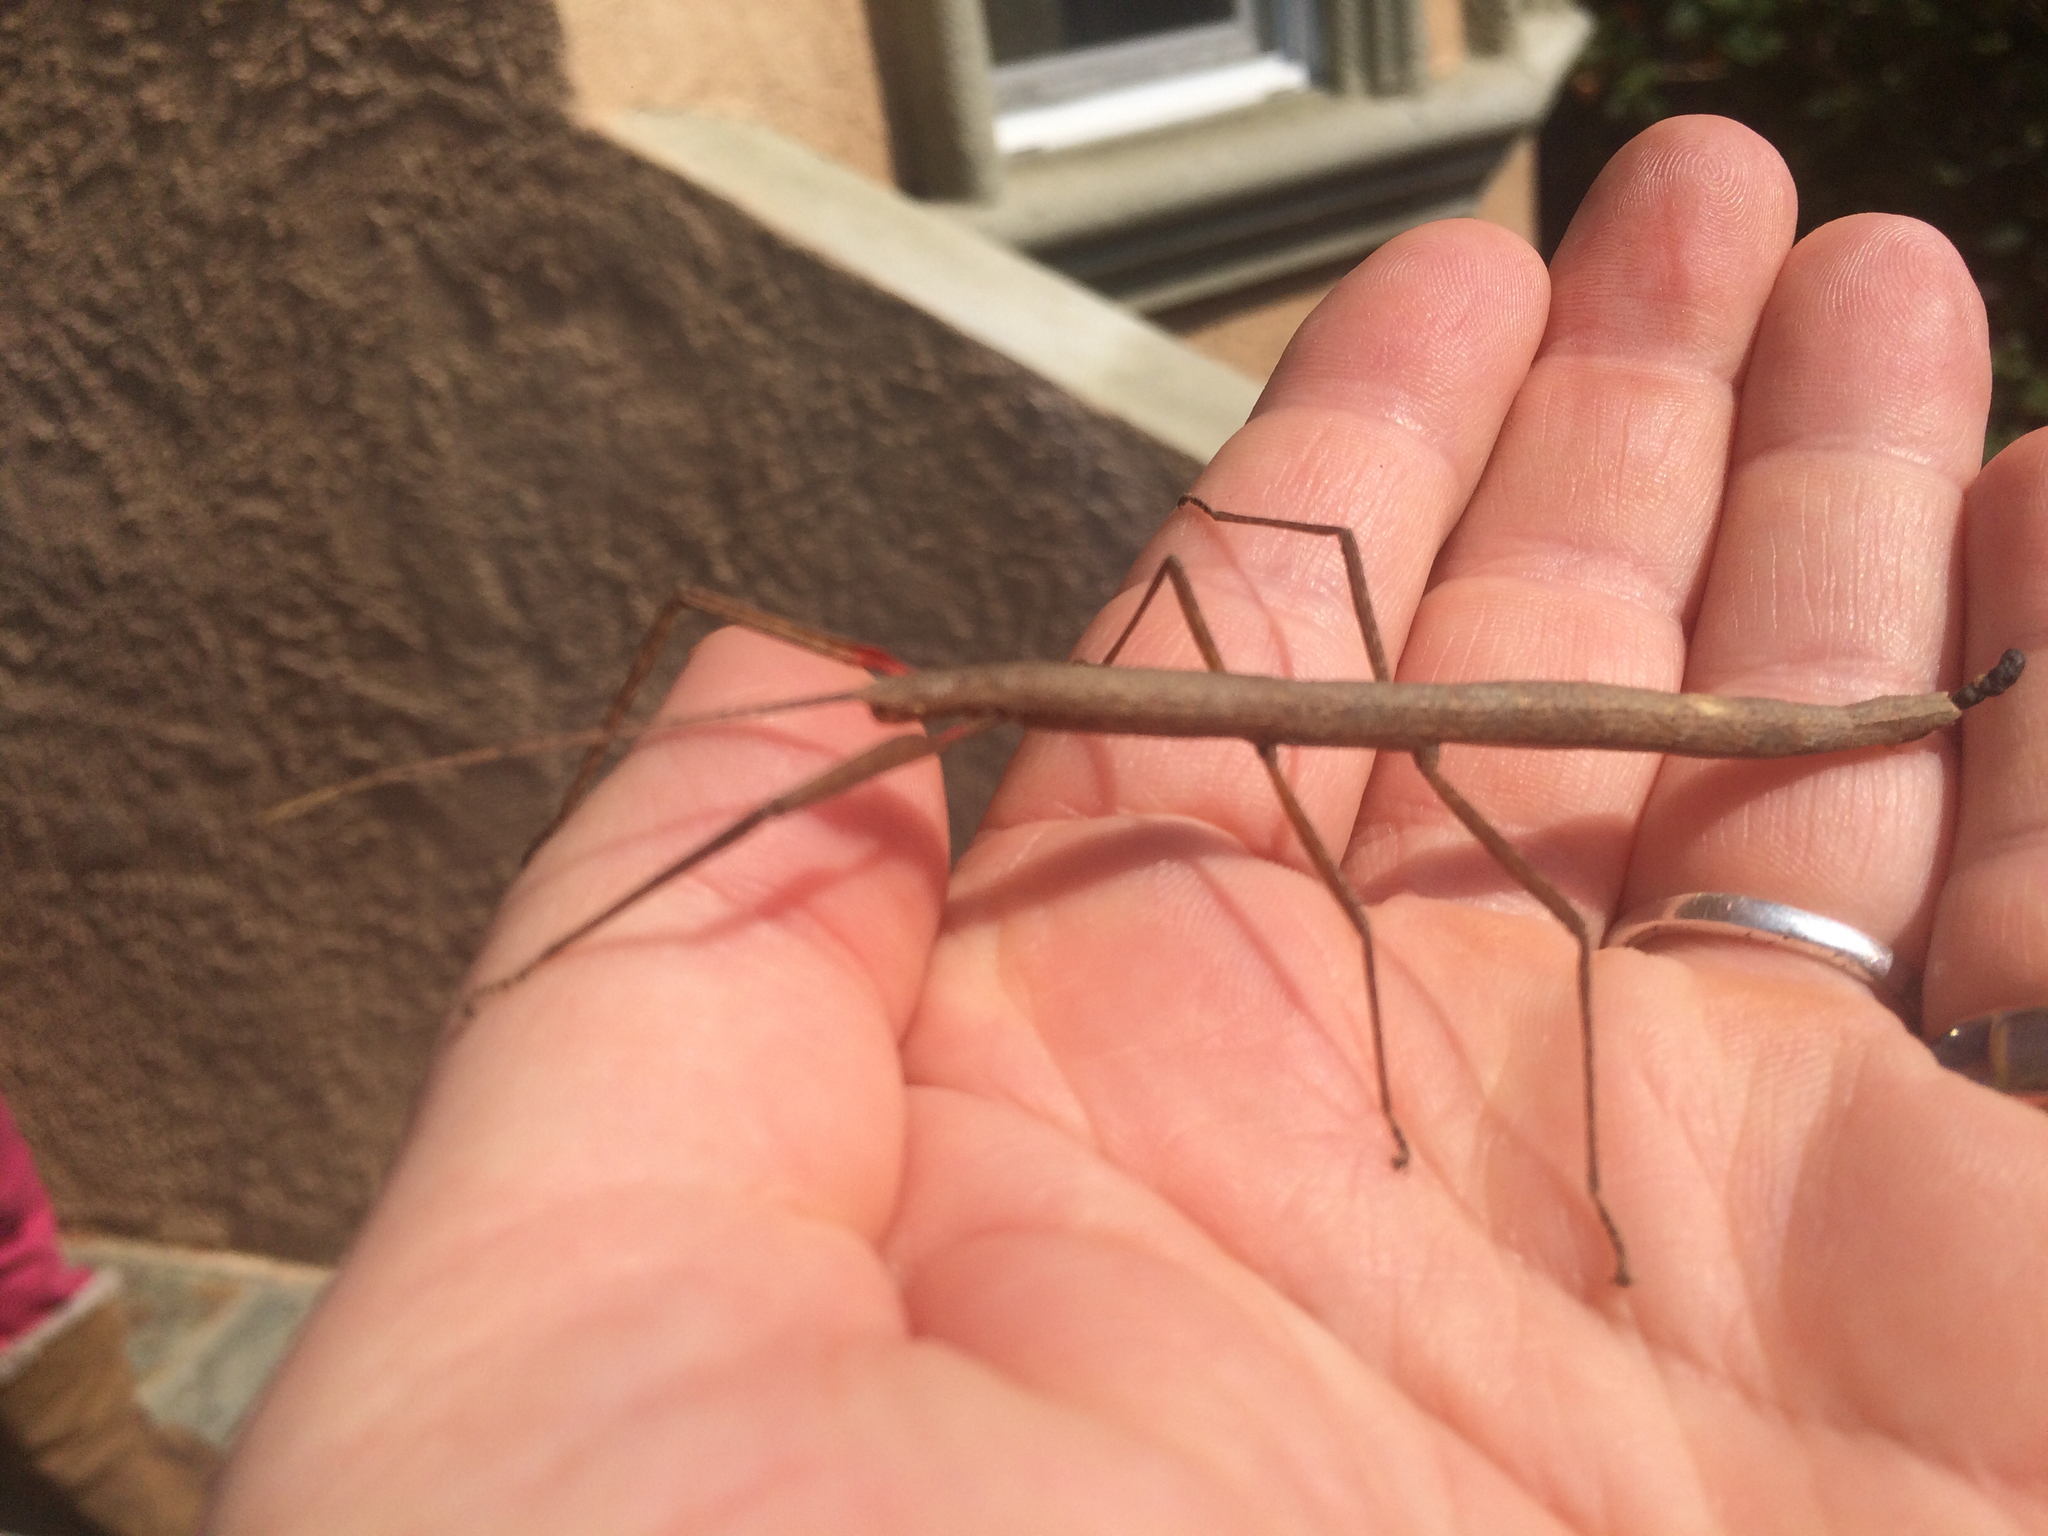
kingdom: Animalia
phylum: Arthropoda
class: Insecta
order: Phasmida
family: Lonchodidae
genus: Carausius
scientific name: Carausius morosus
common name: Indian stick insect
